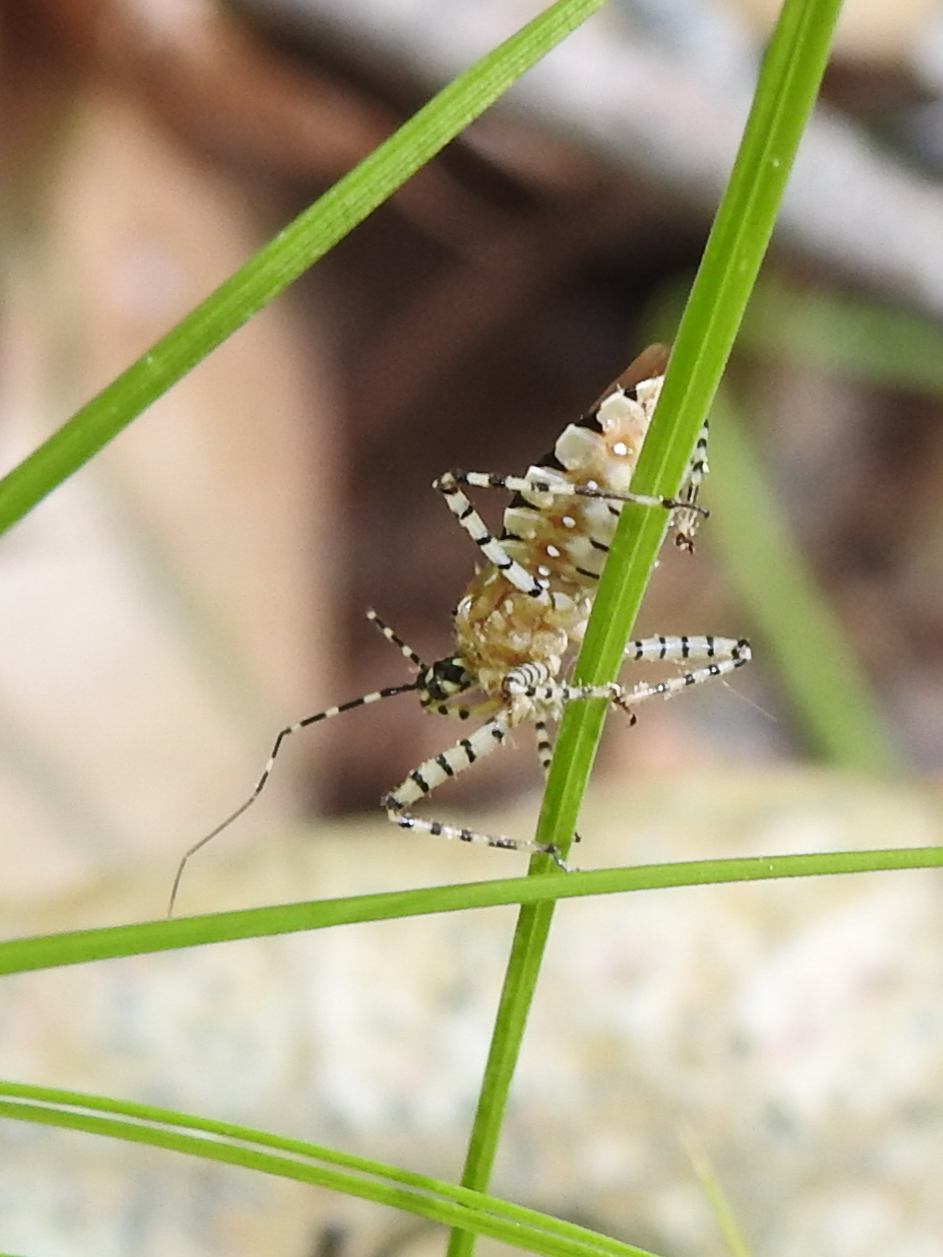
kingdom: Animalia
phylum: Arthropoda
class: Insecta
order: Hemiptera
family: Reduviidae
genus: Pselliopus
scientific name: Pselliopus cinctus
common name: Ringed assassin bug
